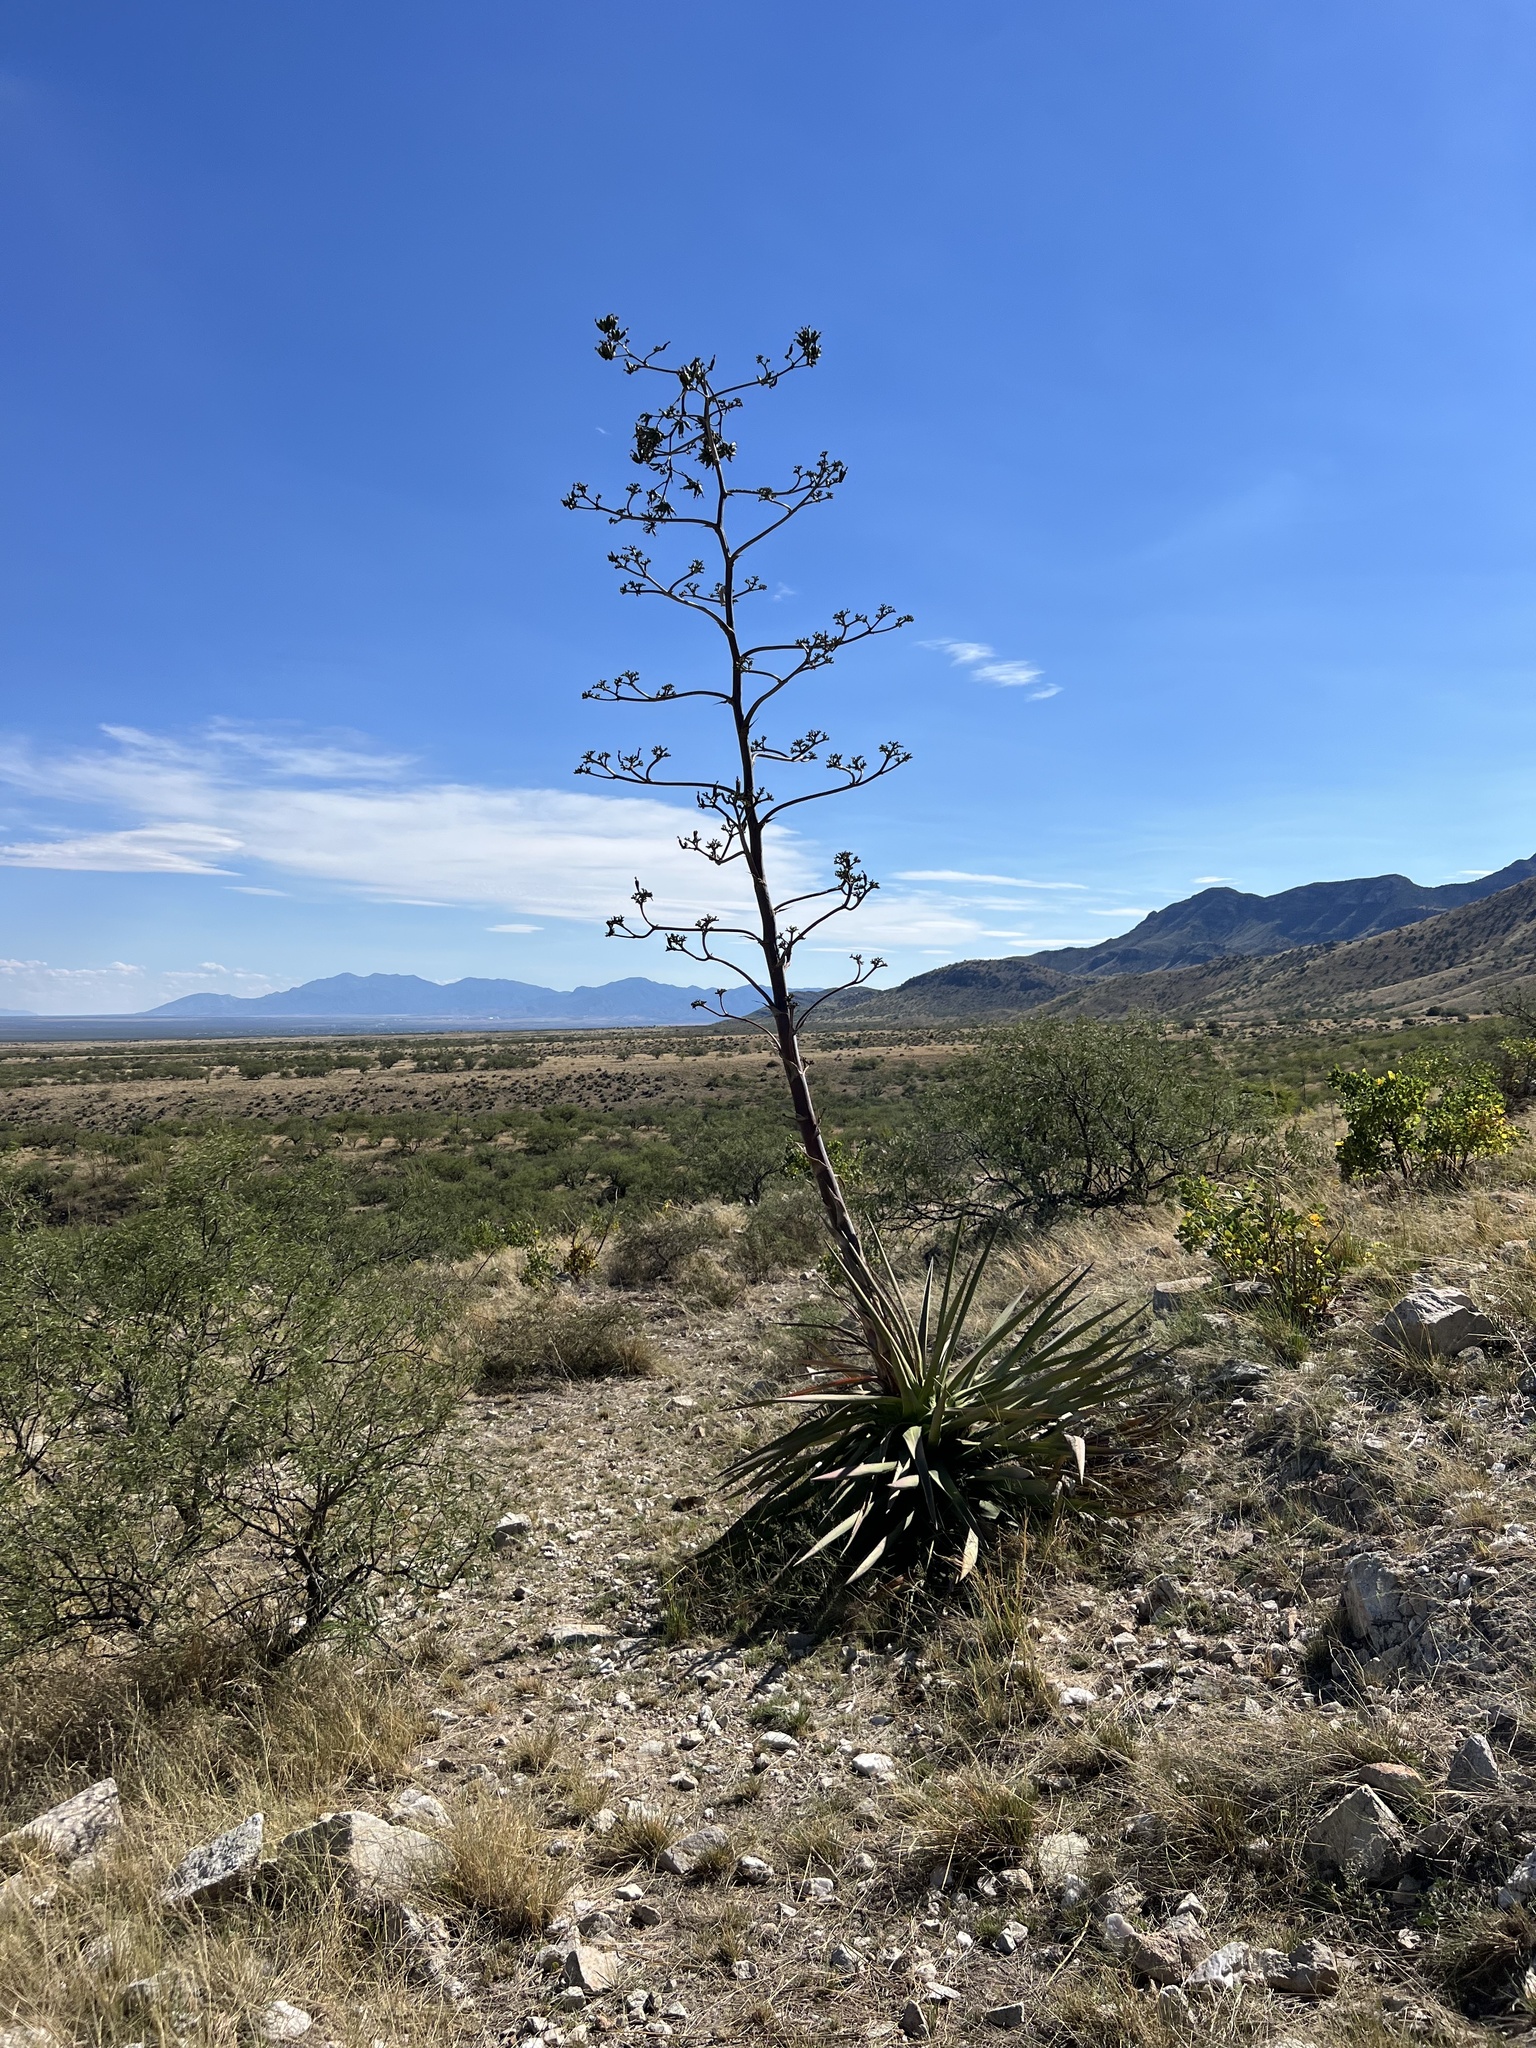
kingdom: Plantae
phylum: Tracheophyta
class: Liliopsida
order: Asparagales
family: Asparagaceae
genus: Agave
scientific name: Agave palmeri
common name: Palmer agave
